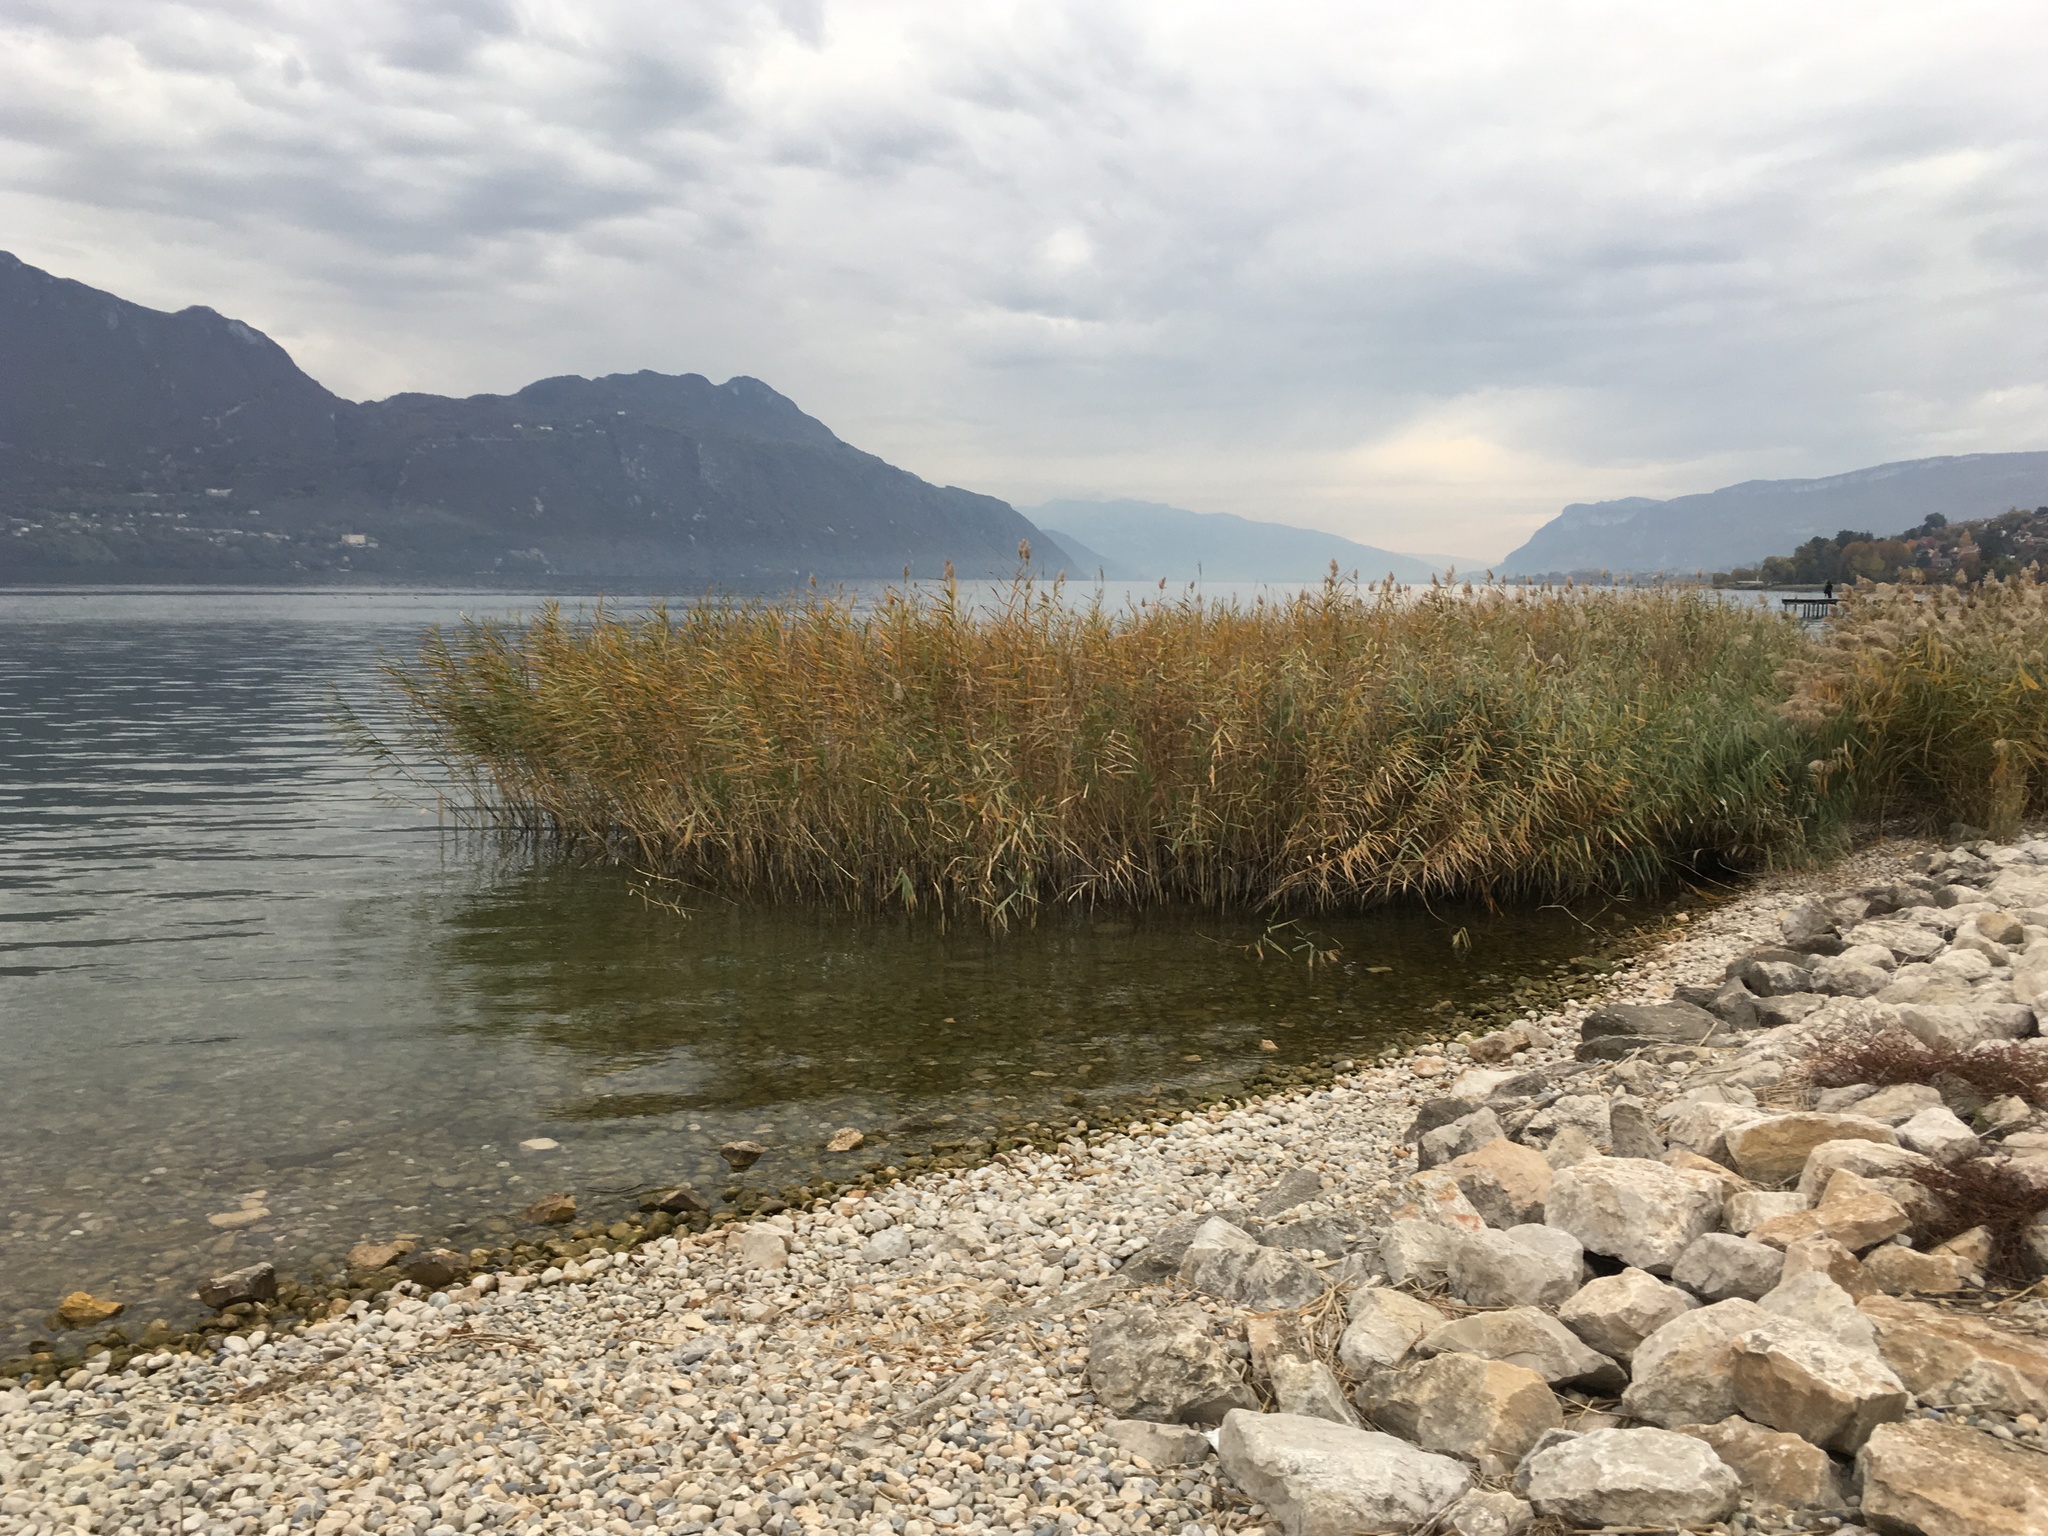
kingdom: Plantae
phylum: Tracheophyta
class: Liliopsida
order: Poales
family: Poaceae
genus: Phragmites
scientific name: Phragmites australis
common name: Common reed
